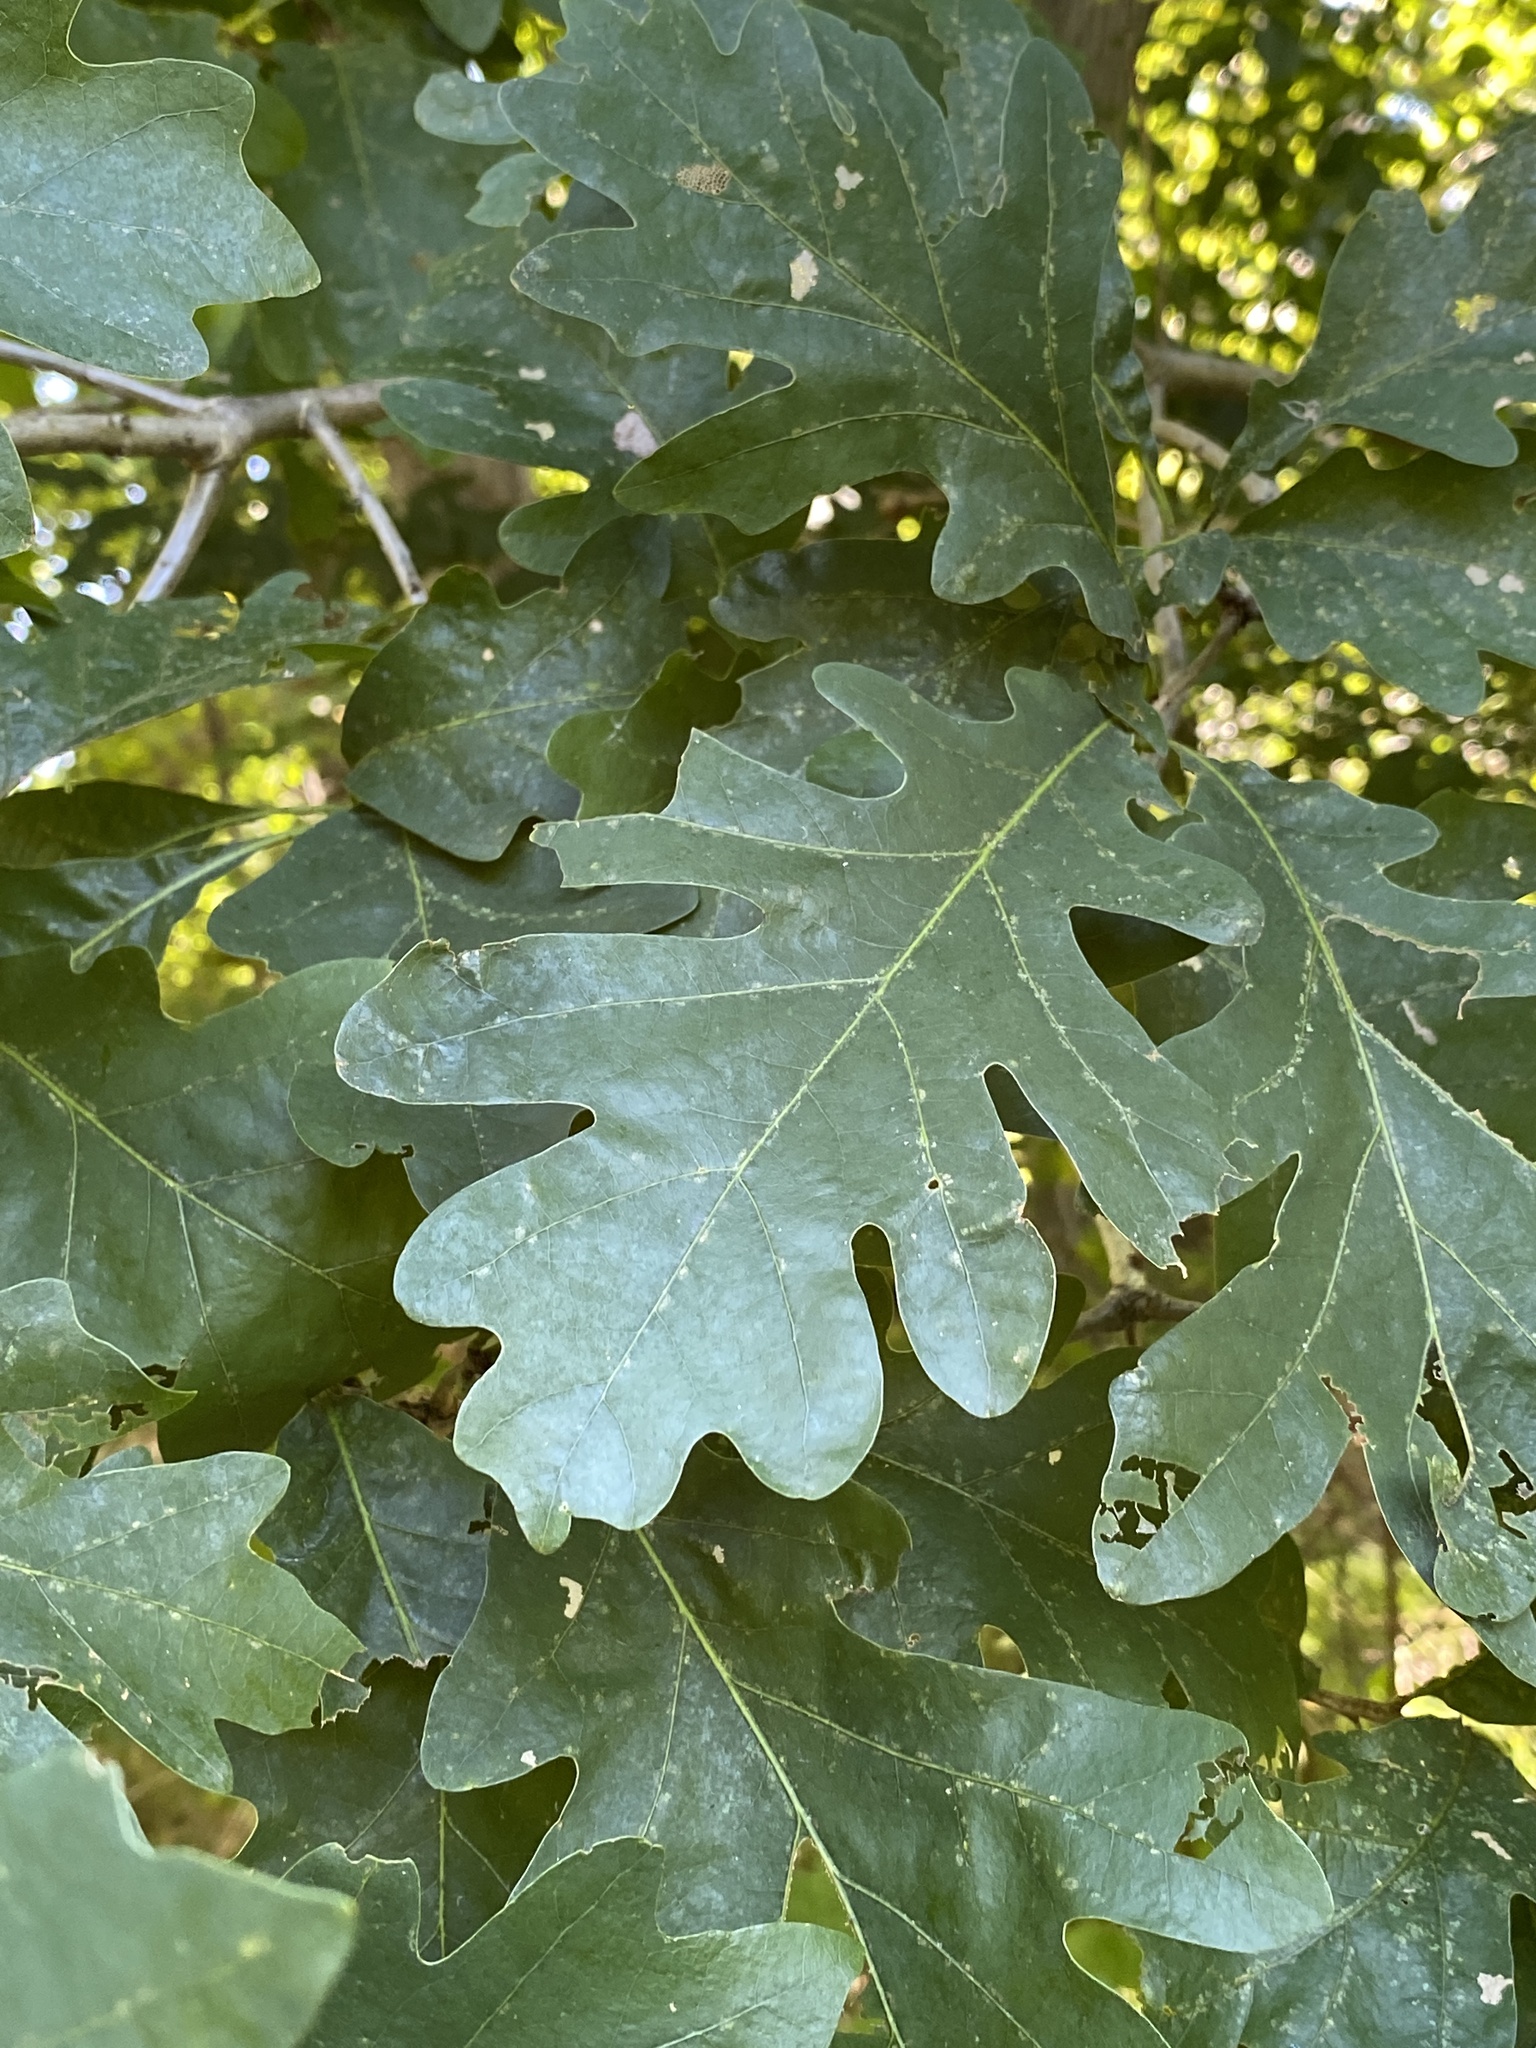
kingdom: Plantae
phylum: Tracheophyta
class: Magnoliopsida
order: Fagales
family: Fagaceae
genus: Quercus
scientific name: Quercus alba
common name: White oak
